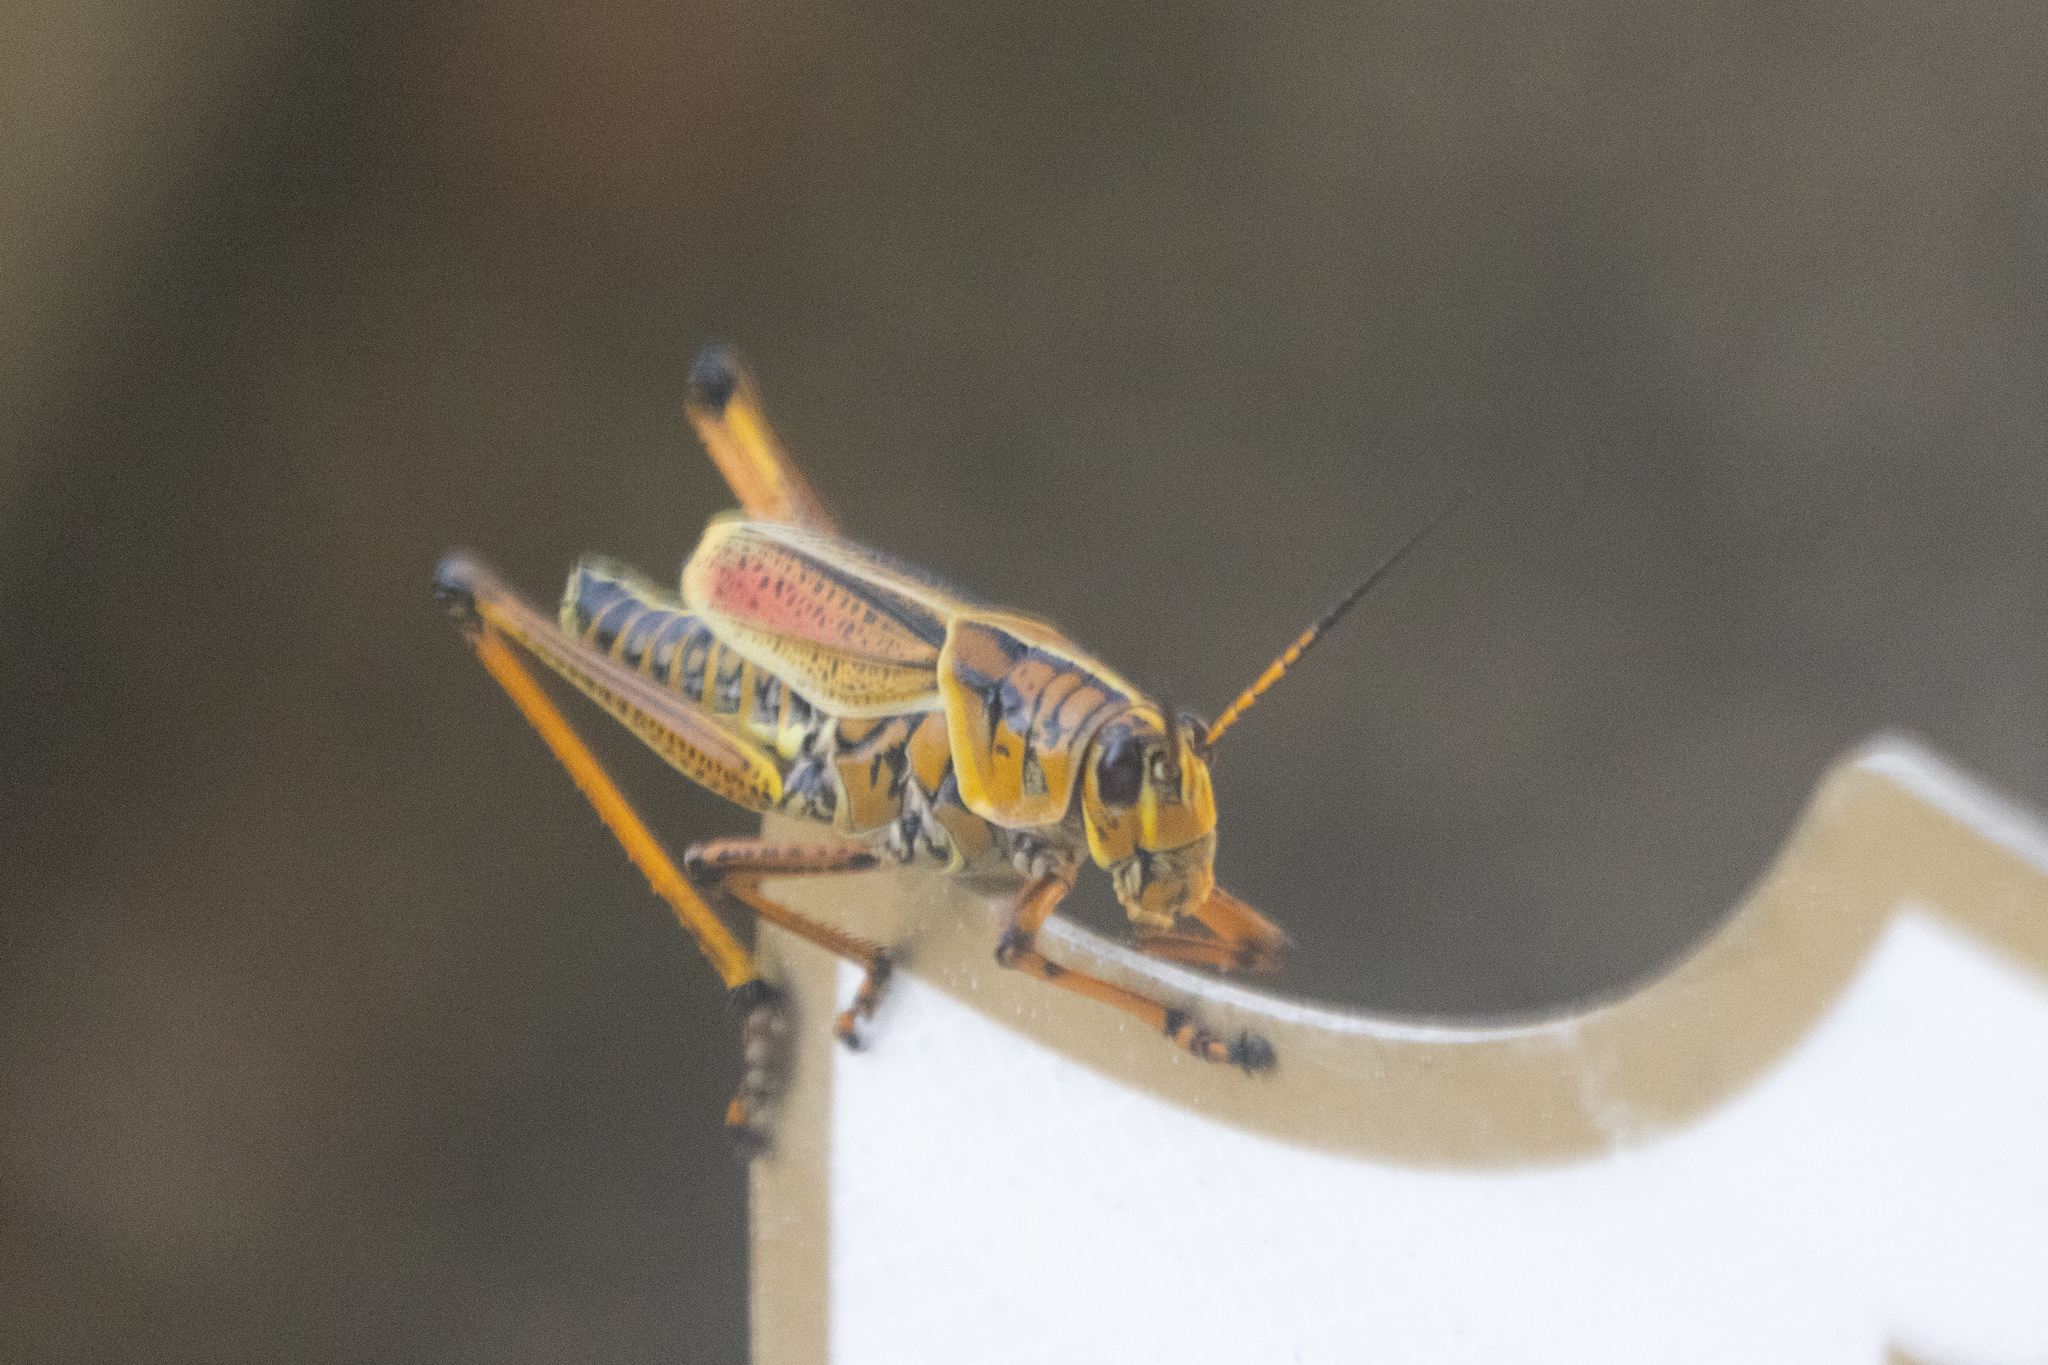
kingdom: Animalia
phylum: Arthropoda
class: Insecta
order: Orthoptera
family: Romaleidae
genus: Romalea
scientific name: Romalea microptera
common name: Eastern lubber grasshopper
